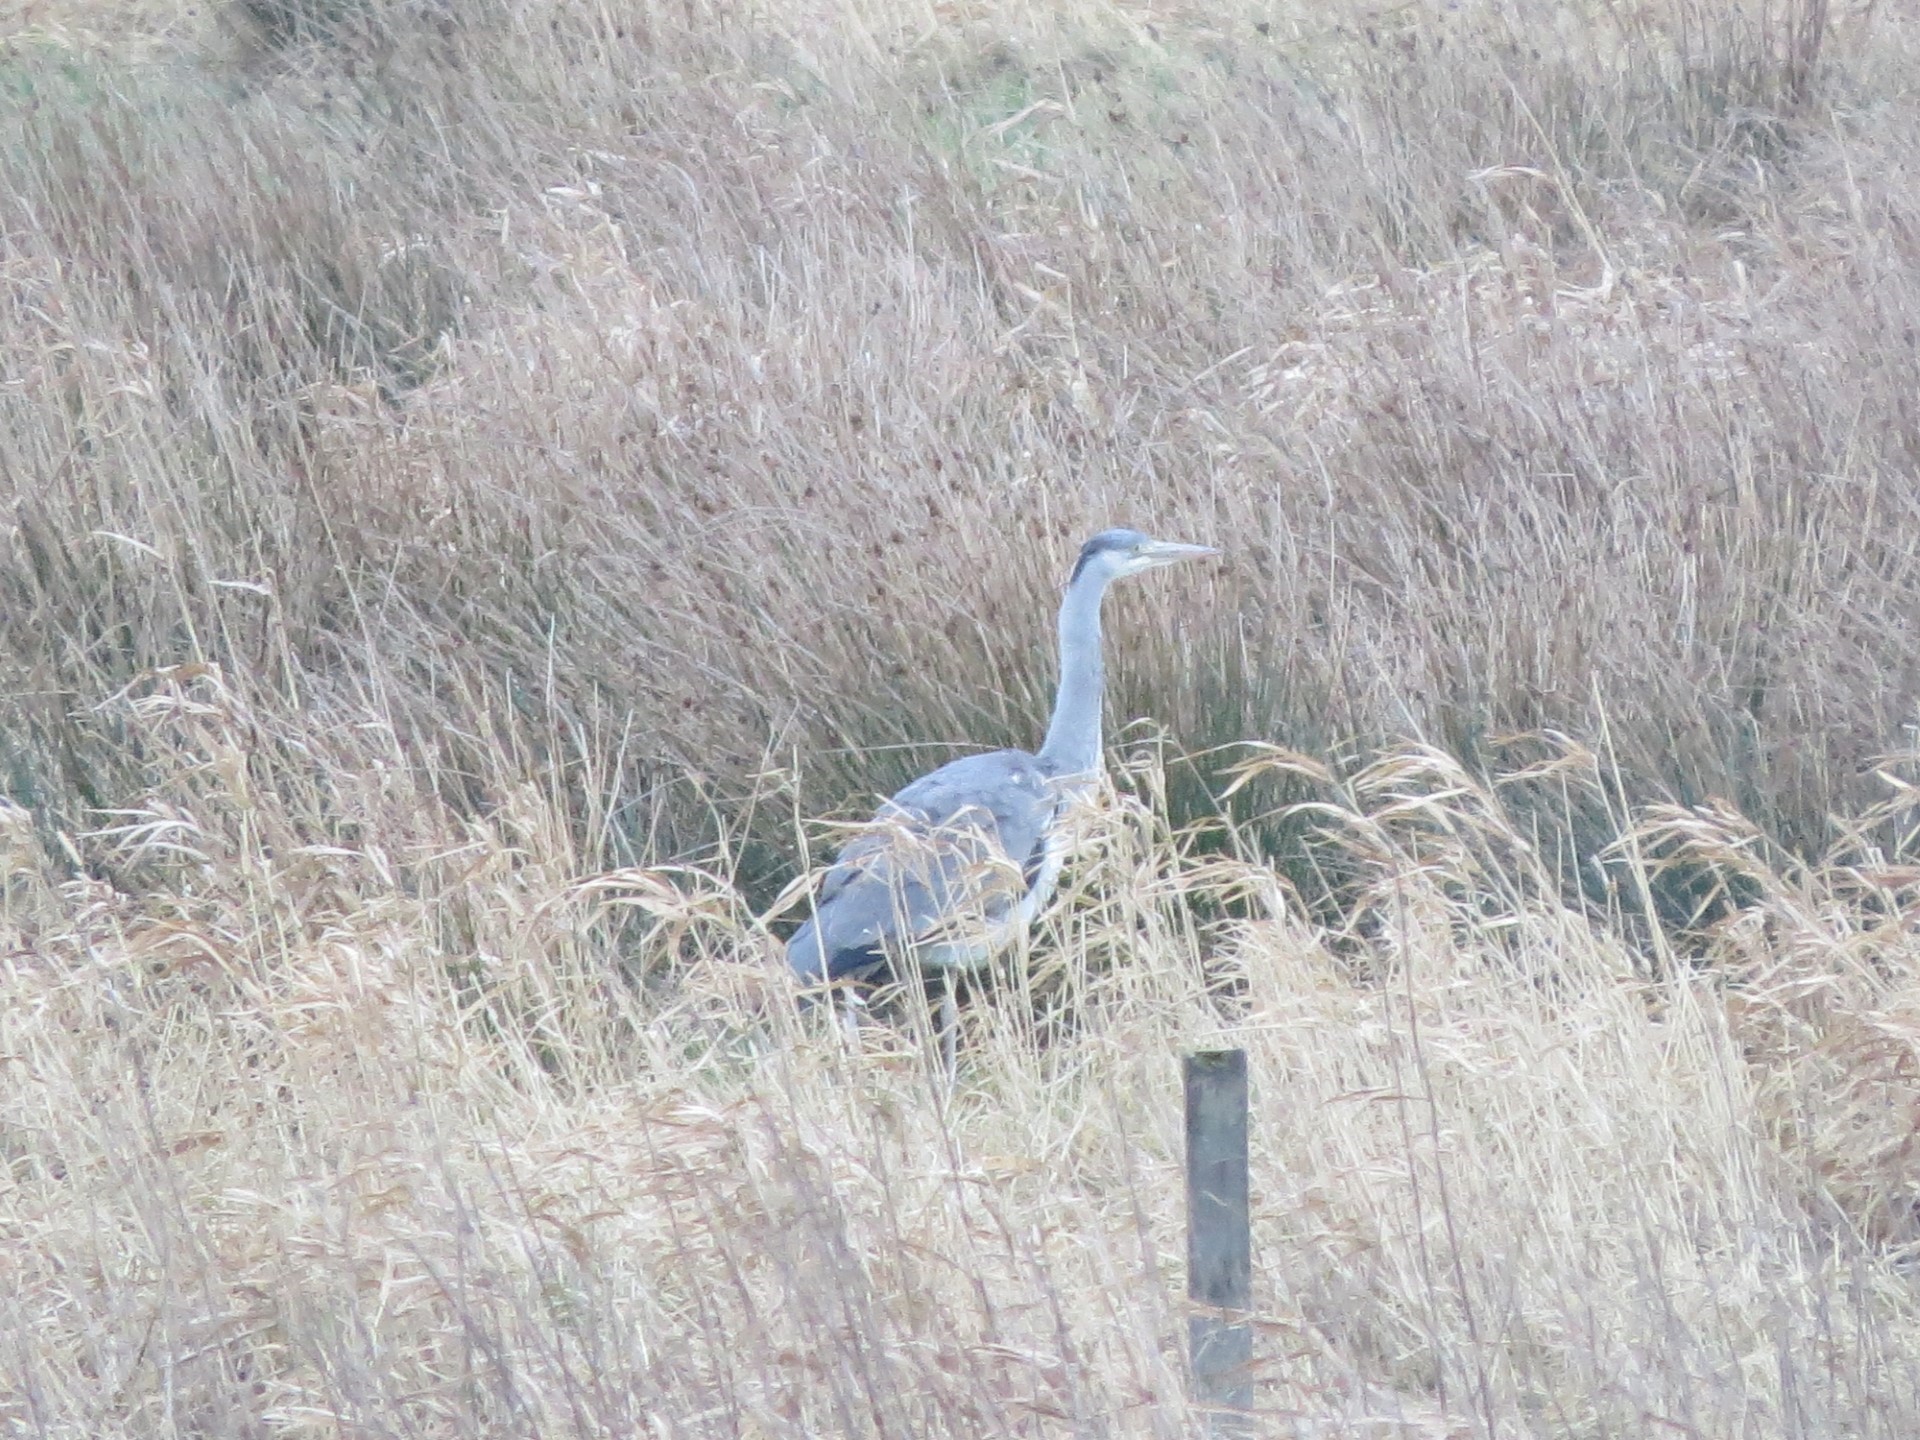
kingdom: Animalia
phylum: Chordata
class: Aves
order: Pelecaniformes
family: Ardeidae
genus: Ardea
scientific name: Ardea cinerea
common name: Grey heron
